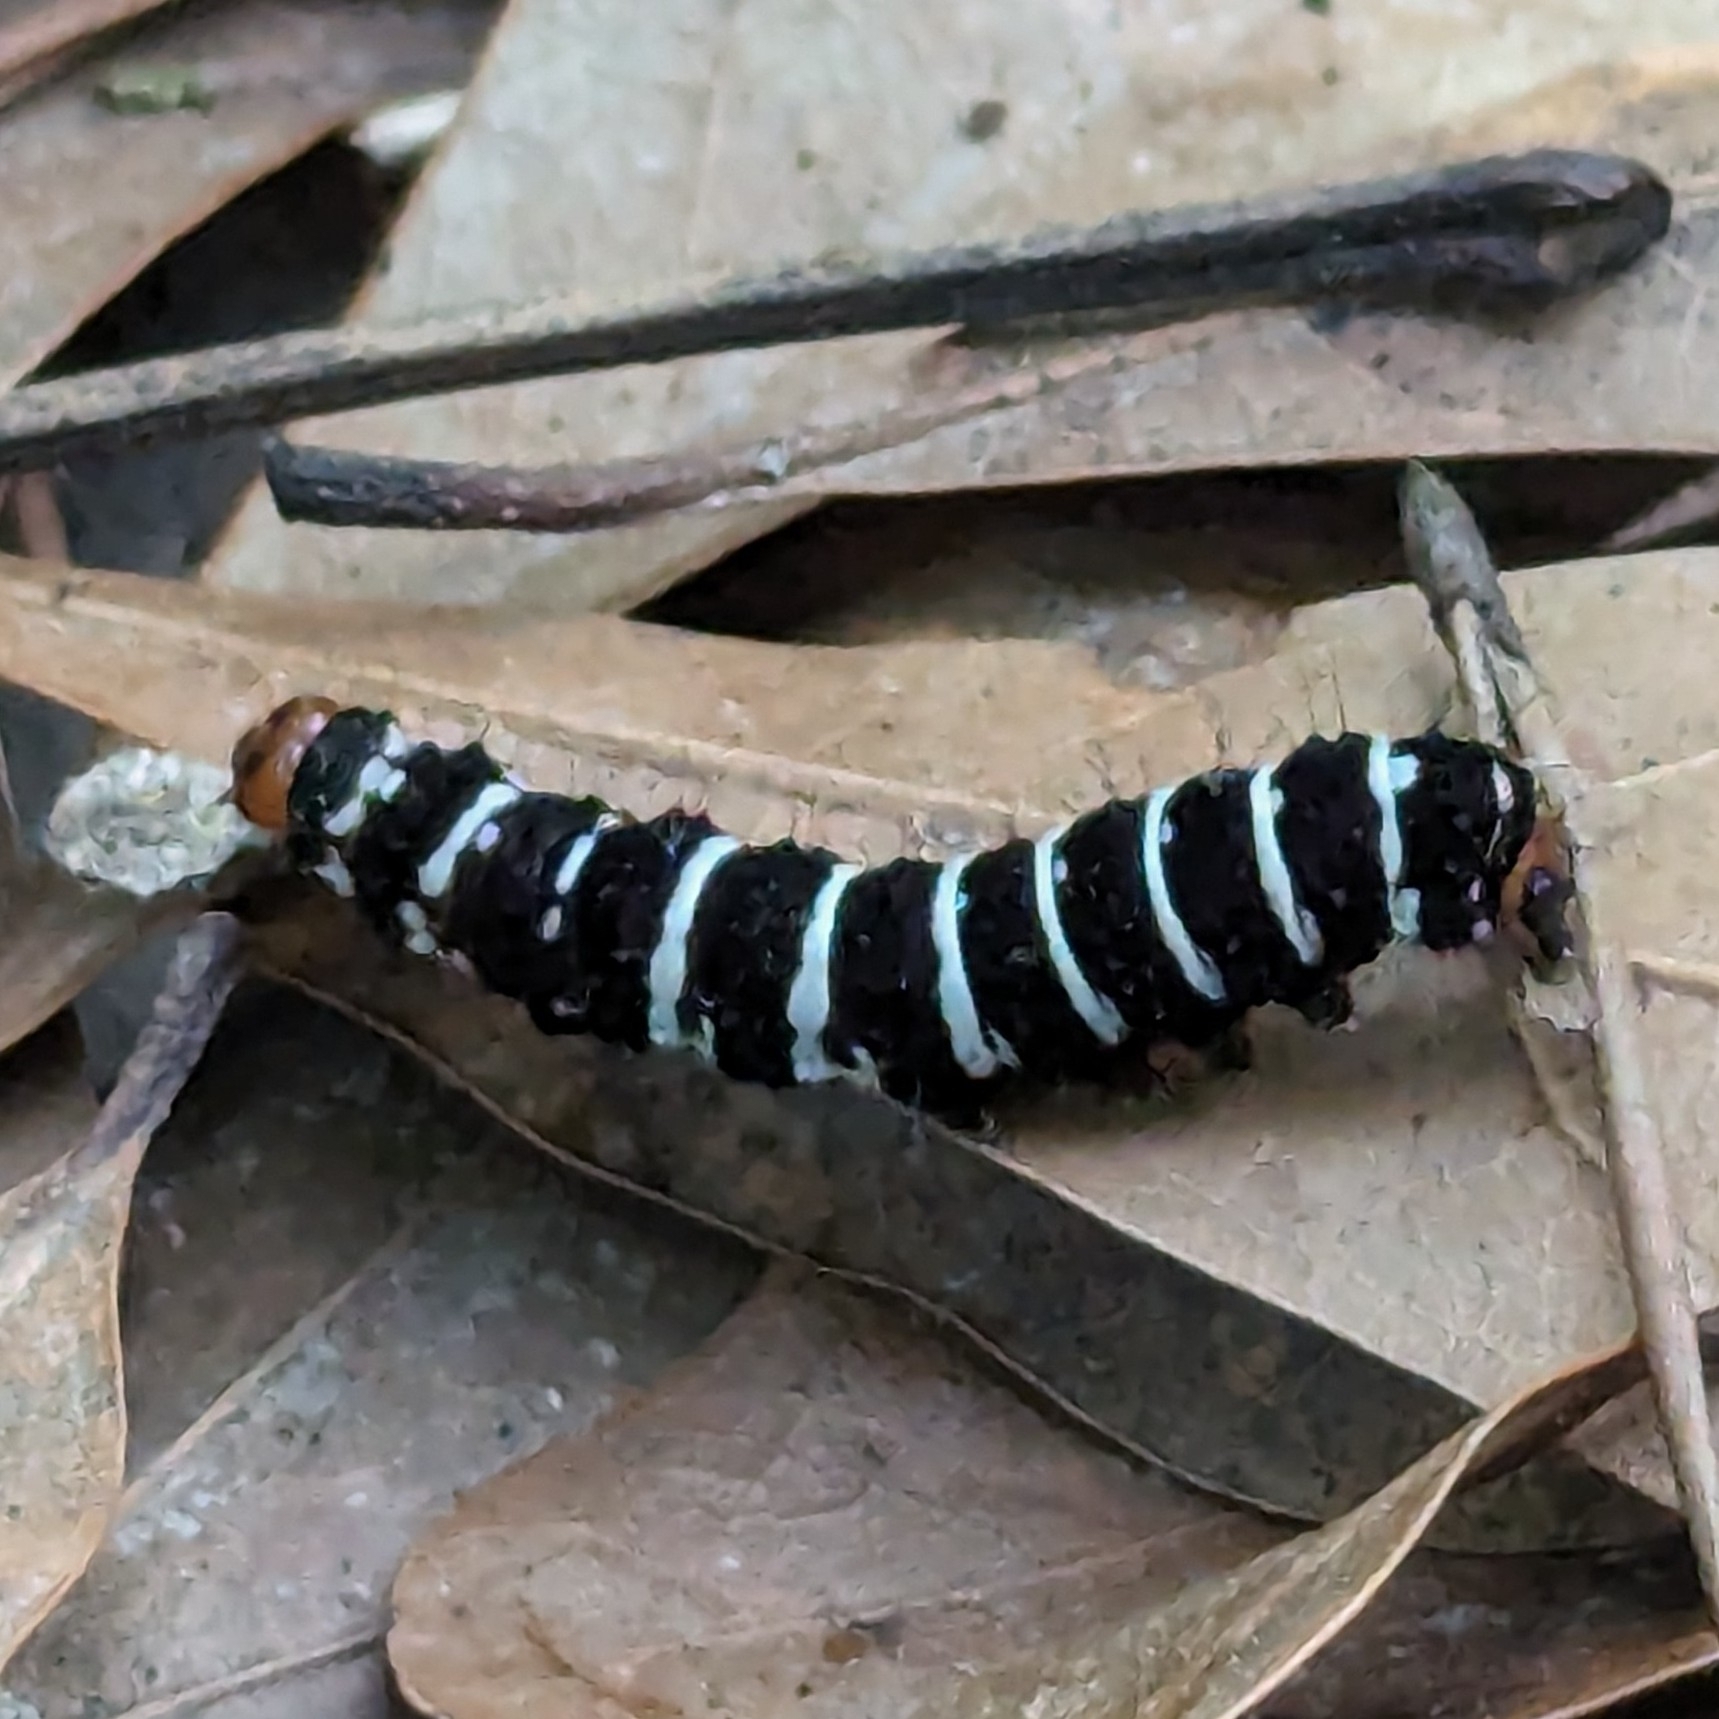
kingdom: Animalia
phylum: Arthropoda
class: Insecta
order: Lepidoptera
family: Noctuidae
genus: Xanthopastis
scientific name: Xanthopastis regnatrix
